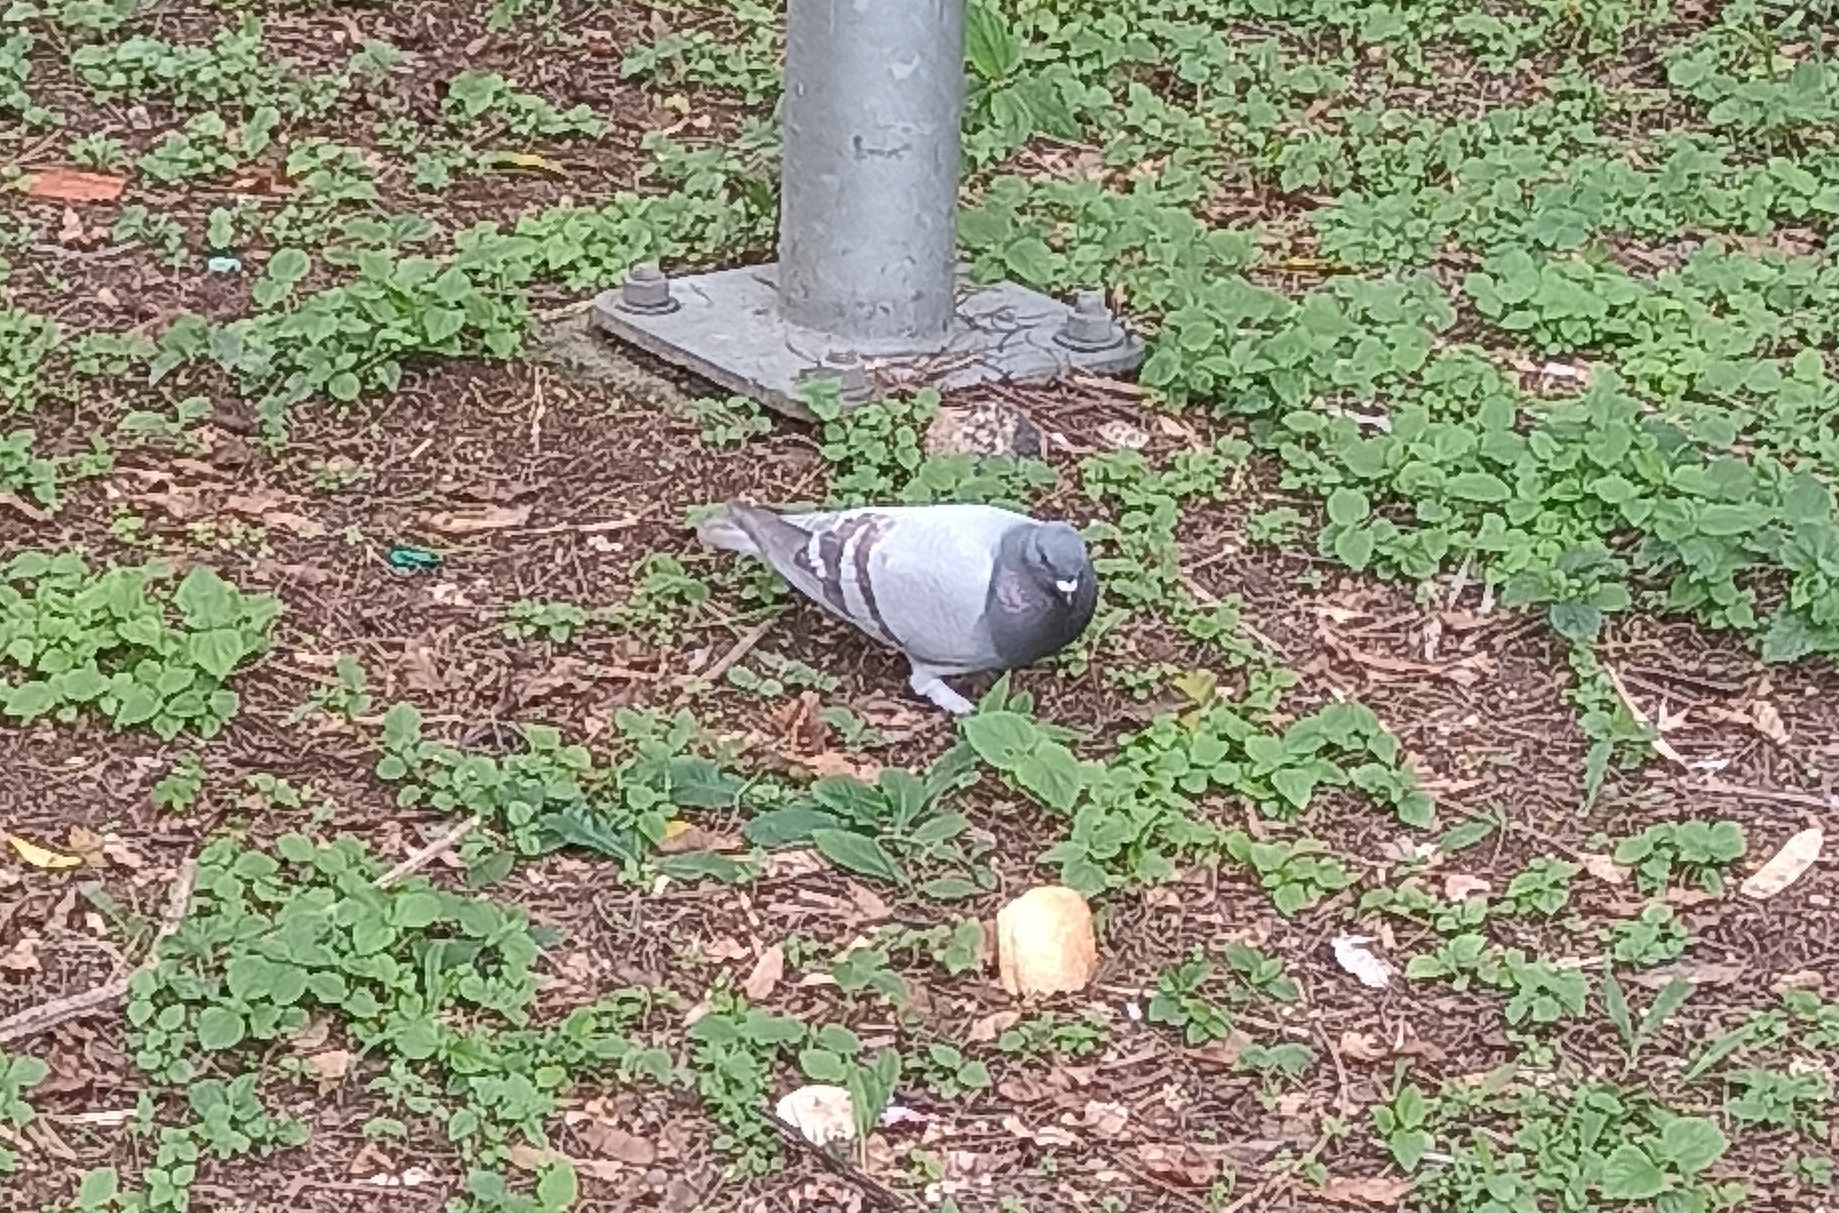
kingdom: Animalia
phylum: Chordata
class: Aves
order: Columbiformes
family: Columbidae
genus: Columba
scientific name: Columba livia
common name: Rock pigeon
